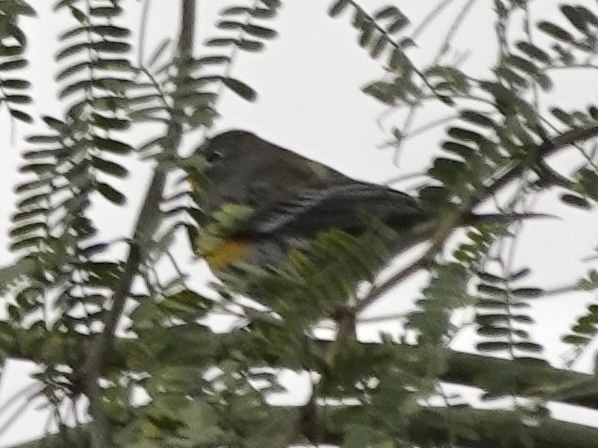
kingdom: Animalia
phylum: Chordata
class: Aves
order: Passeriformes
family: Parulidae
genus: Setophaga
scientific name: Setophaga coronata
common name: Myrtle warbler
